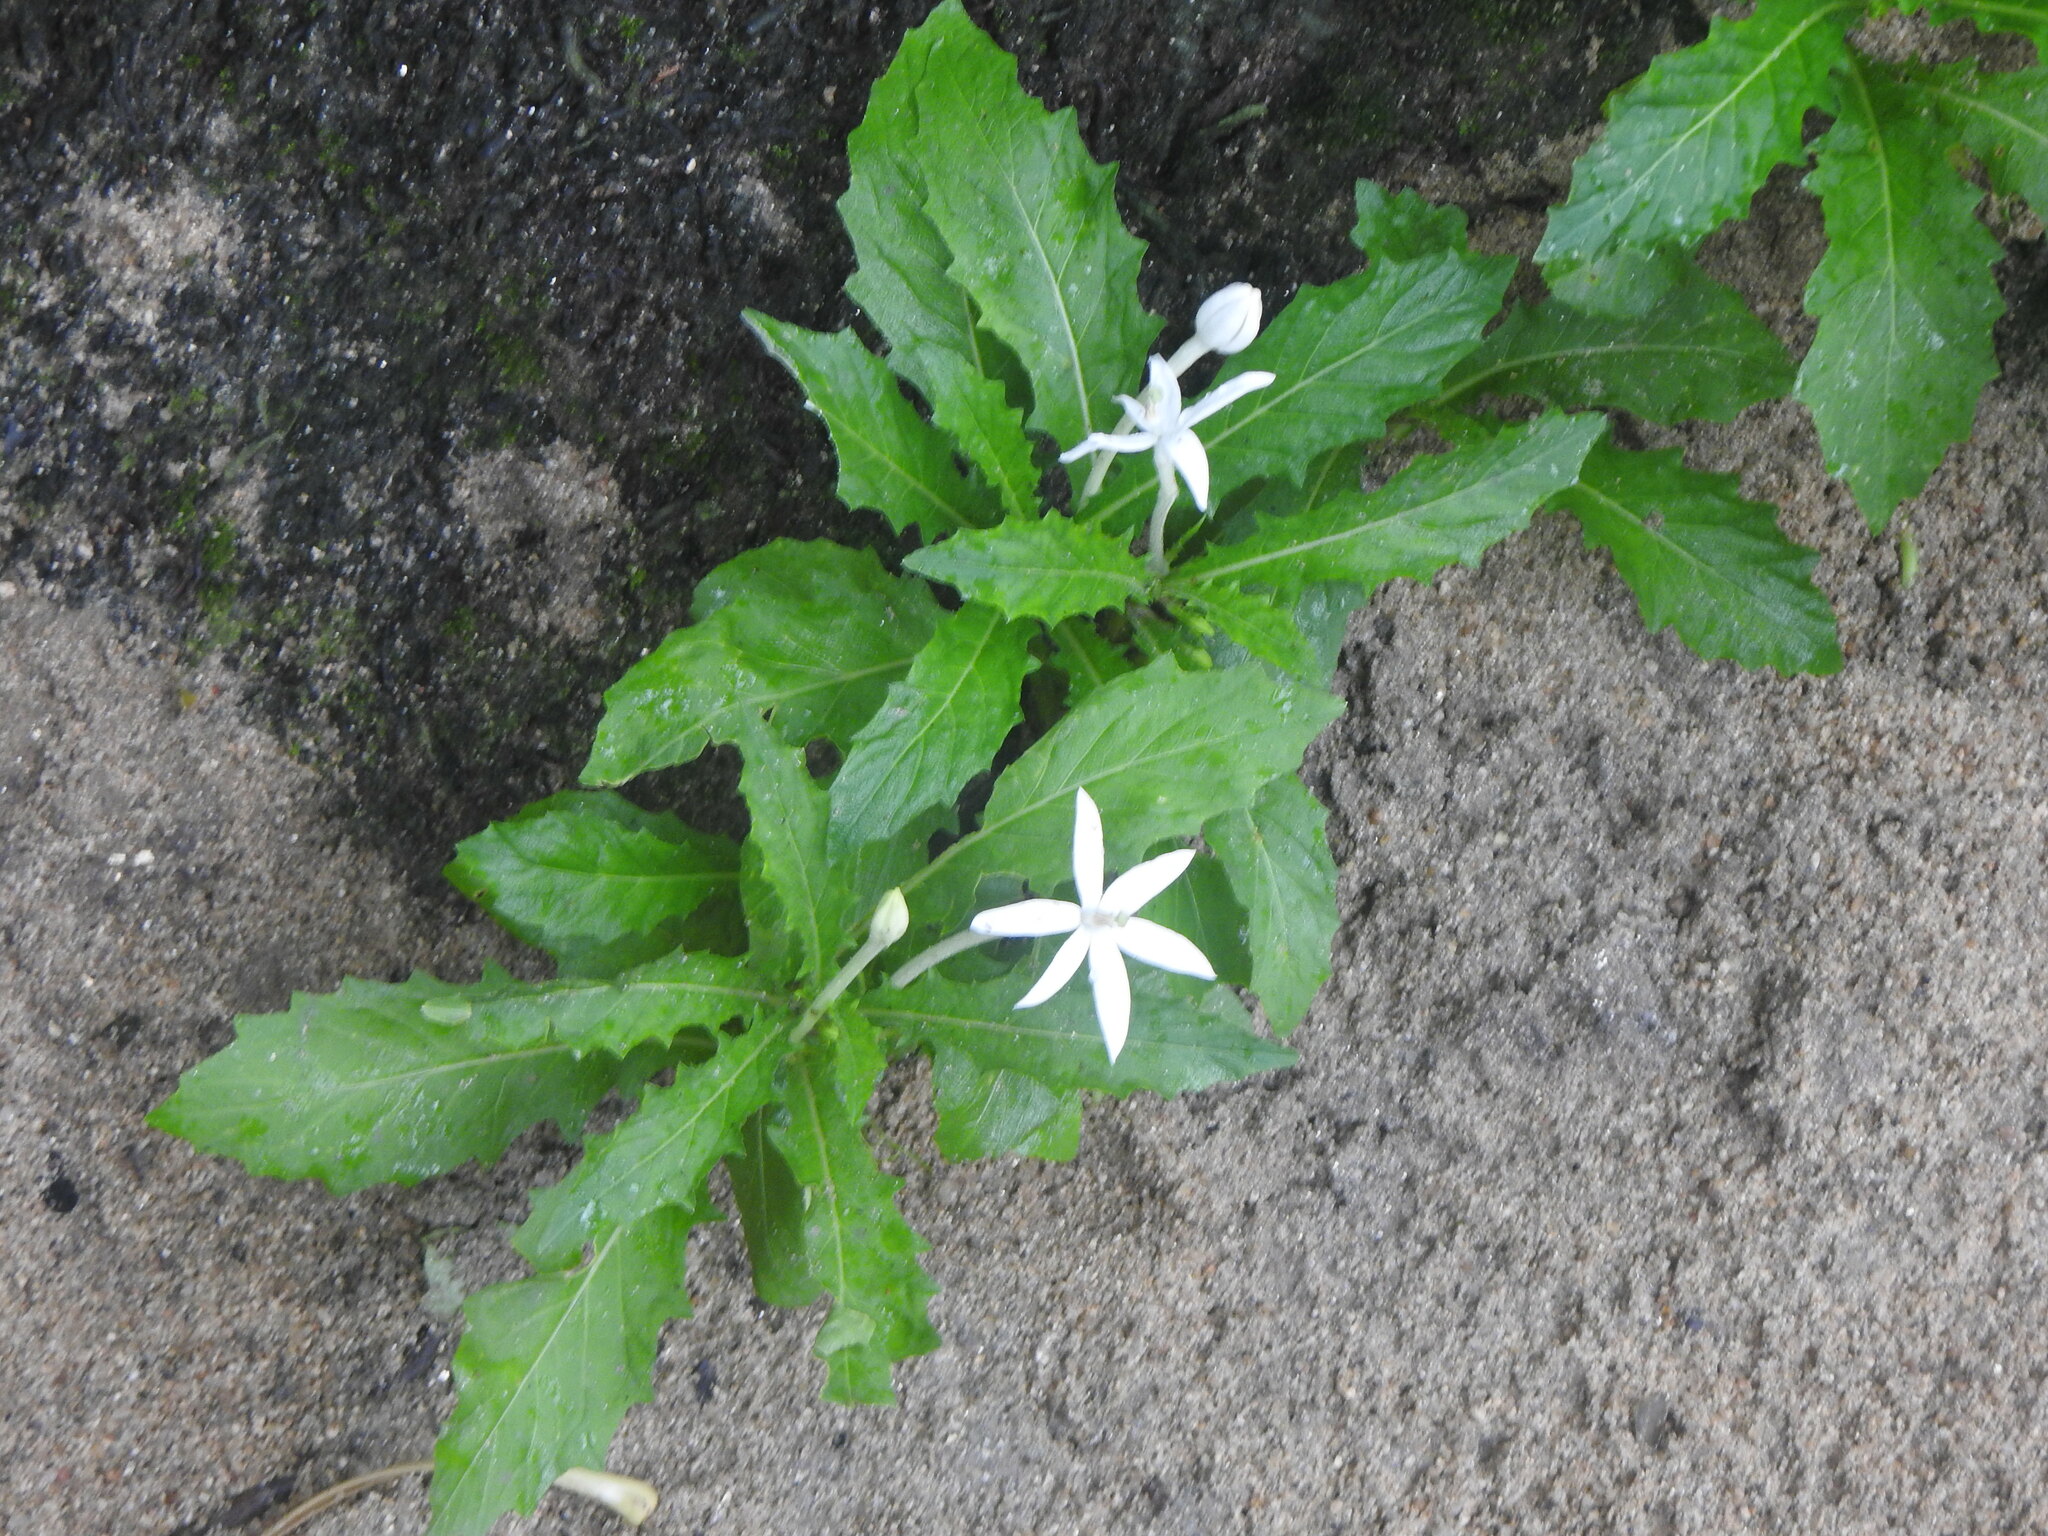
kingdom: Plantae
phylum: Tracheophyta
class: Magnoliopsida
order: Asterales
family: Campanulaceae
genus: Hippobroma
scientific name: Hippobroma longiflora
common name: Madamfate
